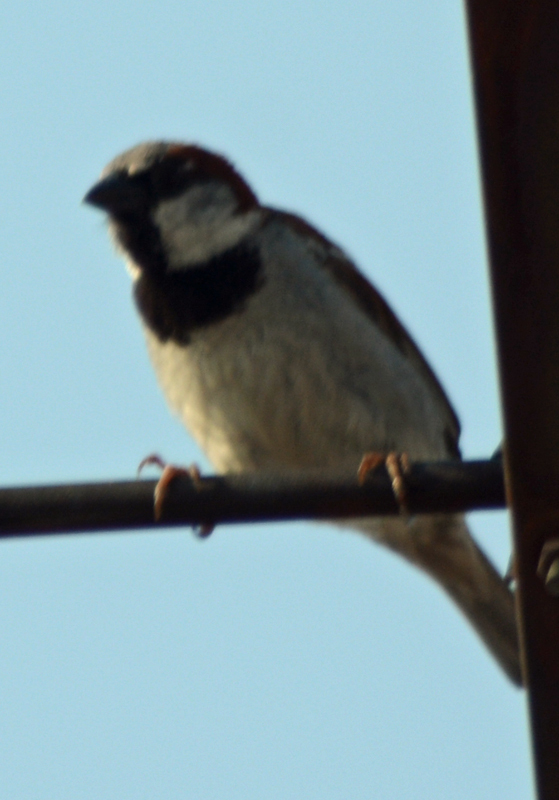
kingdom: Animalia
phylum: Chordata
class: Aves
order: Passeriformes
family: Passeridae
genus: Passer
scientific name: Passer domesticus
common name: House sparrow
